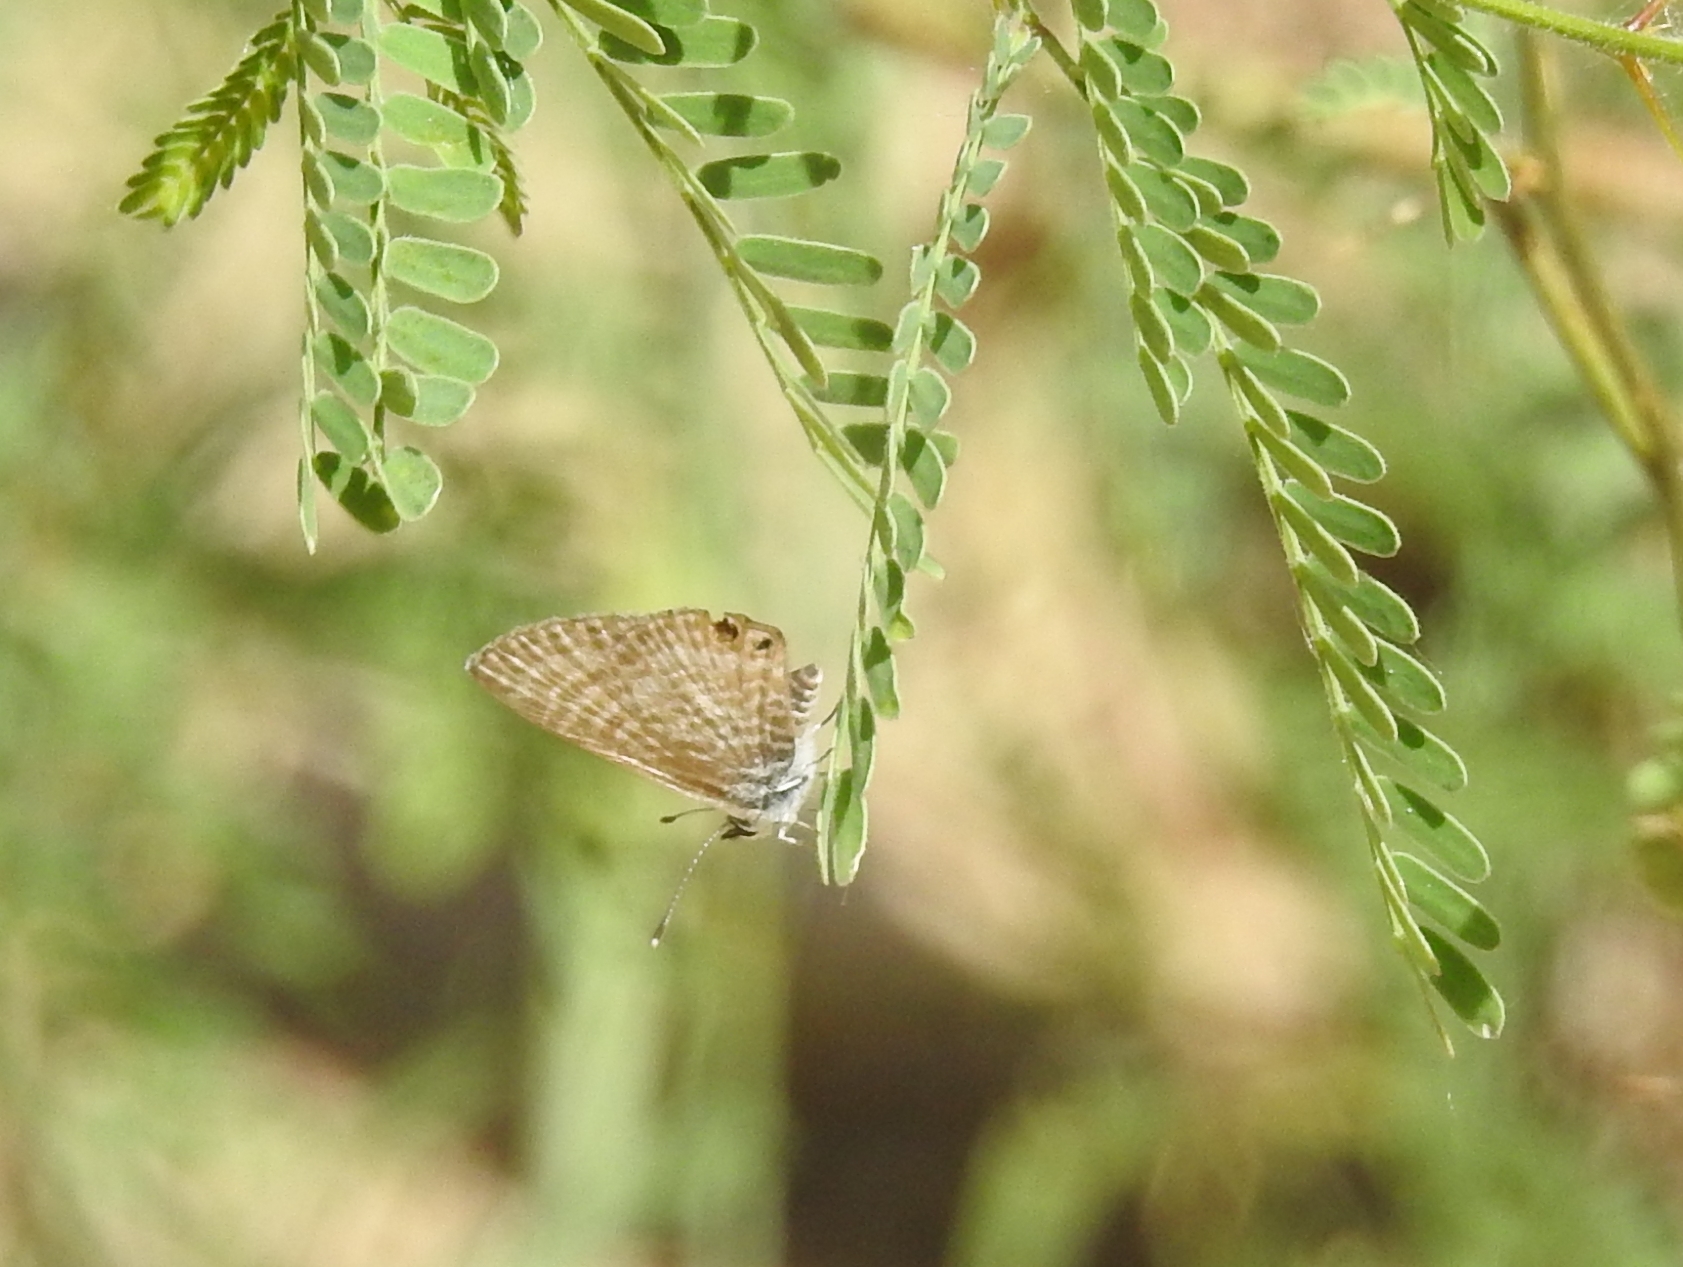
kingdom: Animalia
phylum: Arthropoda
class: Insecta
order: Lepidoptera
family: Lycaenidae
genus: Leptotes
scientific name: Leptotes marina
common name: Marine blue
